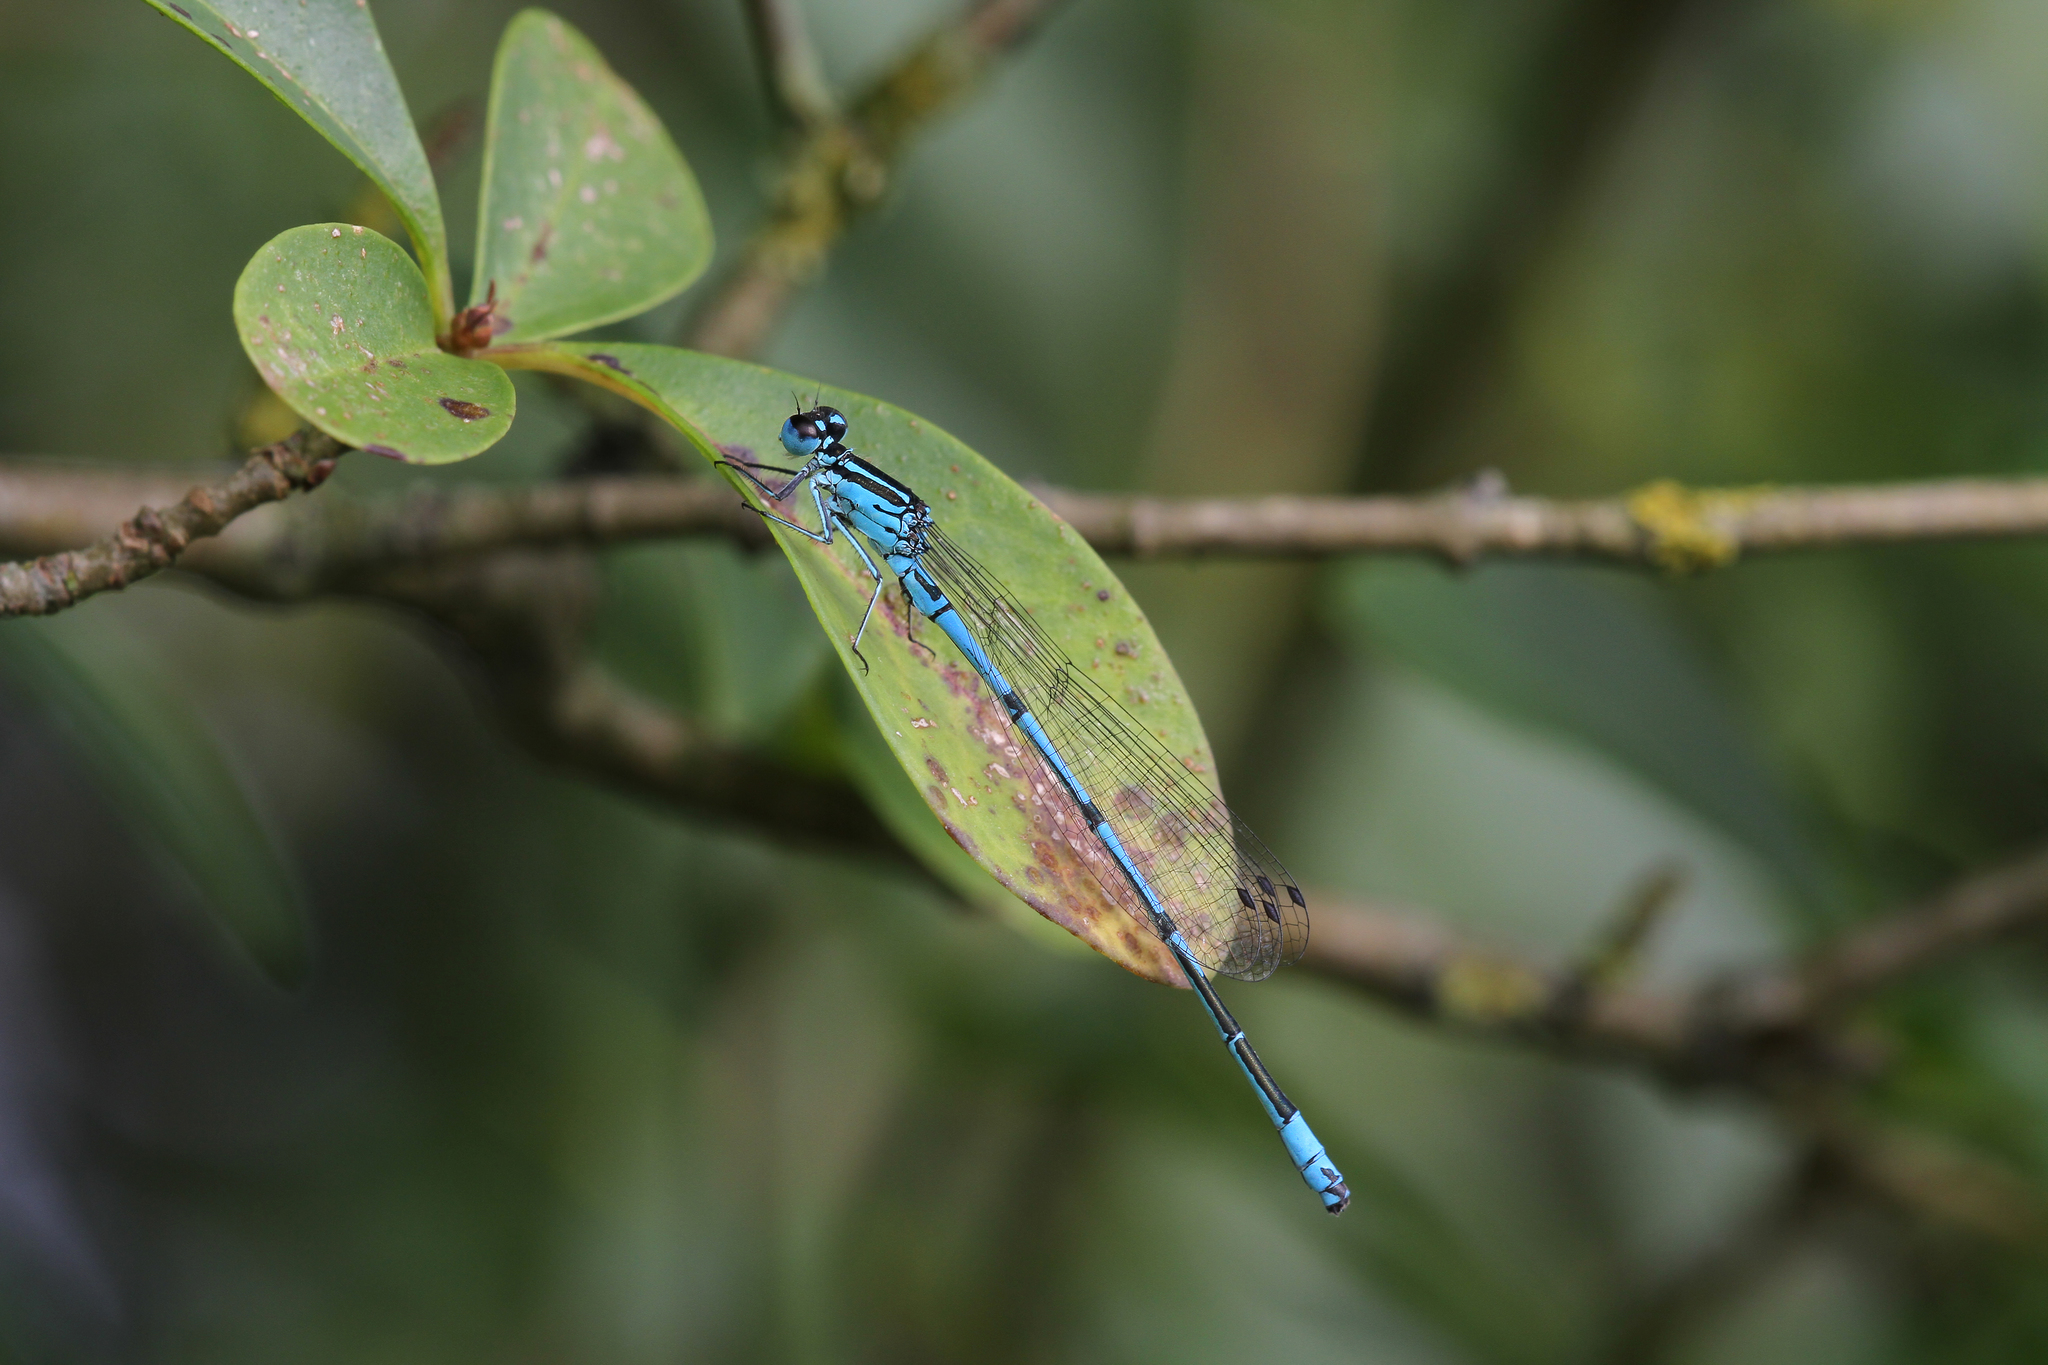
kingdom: Animalia
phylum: Arthropoda
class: Insecta
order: Odonata
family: Coenagrionidae
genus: Coenagrion
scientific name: Coenagrion puella
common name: Azure damselfly
